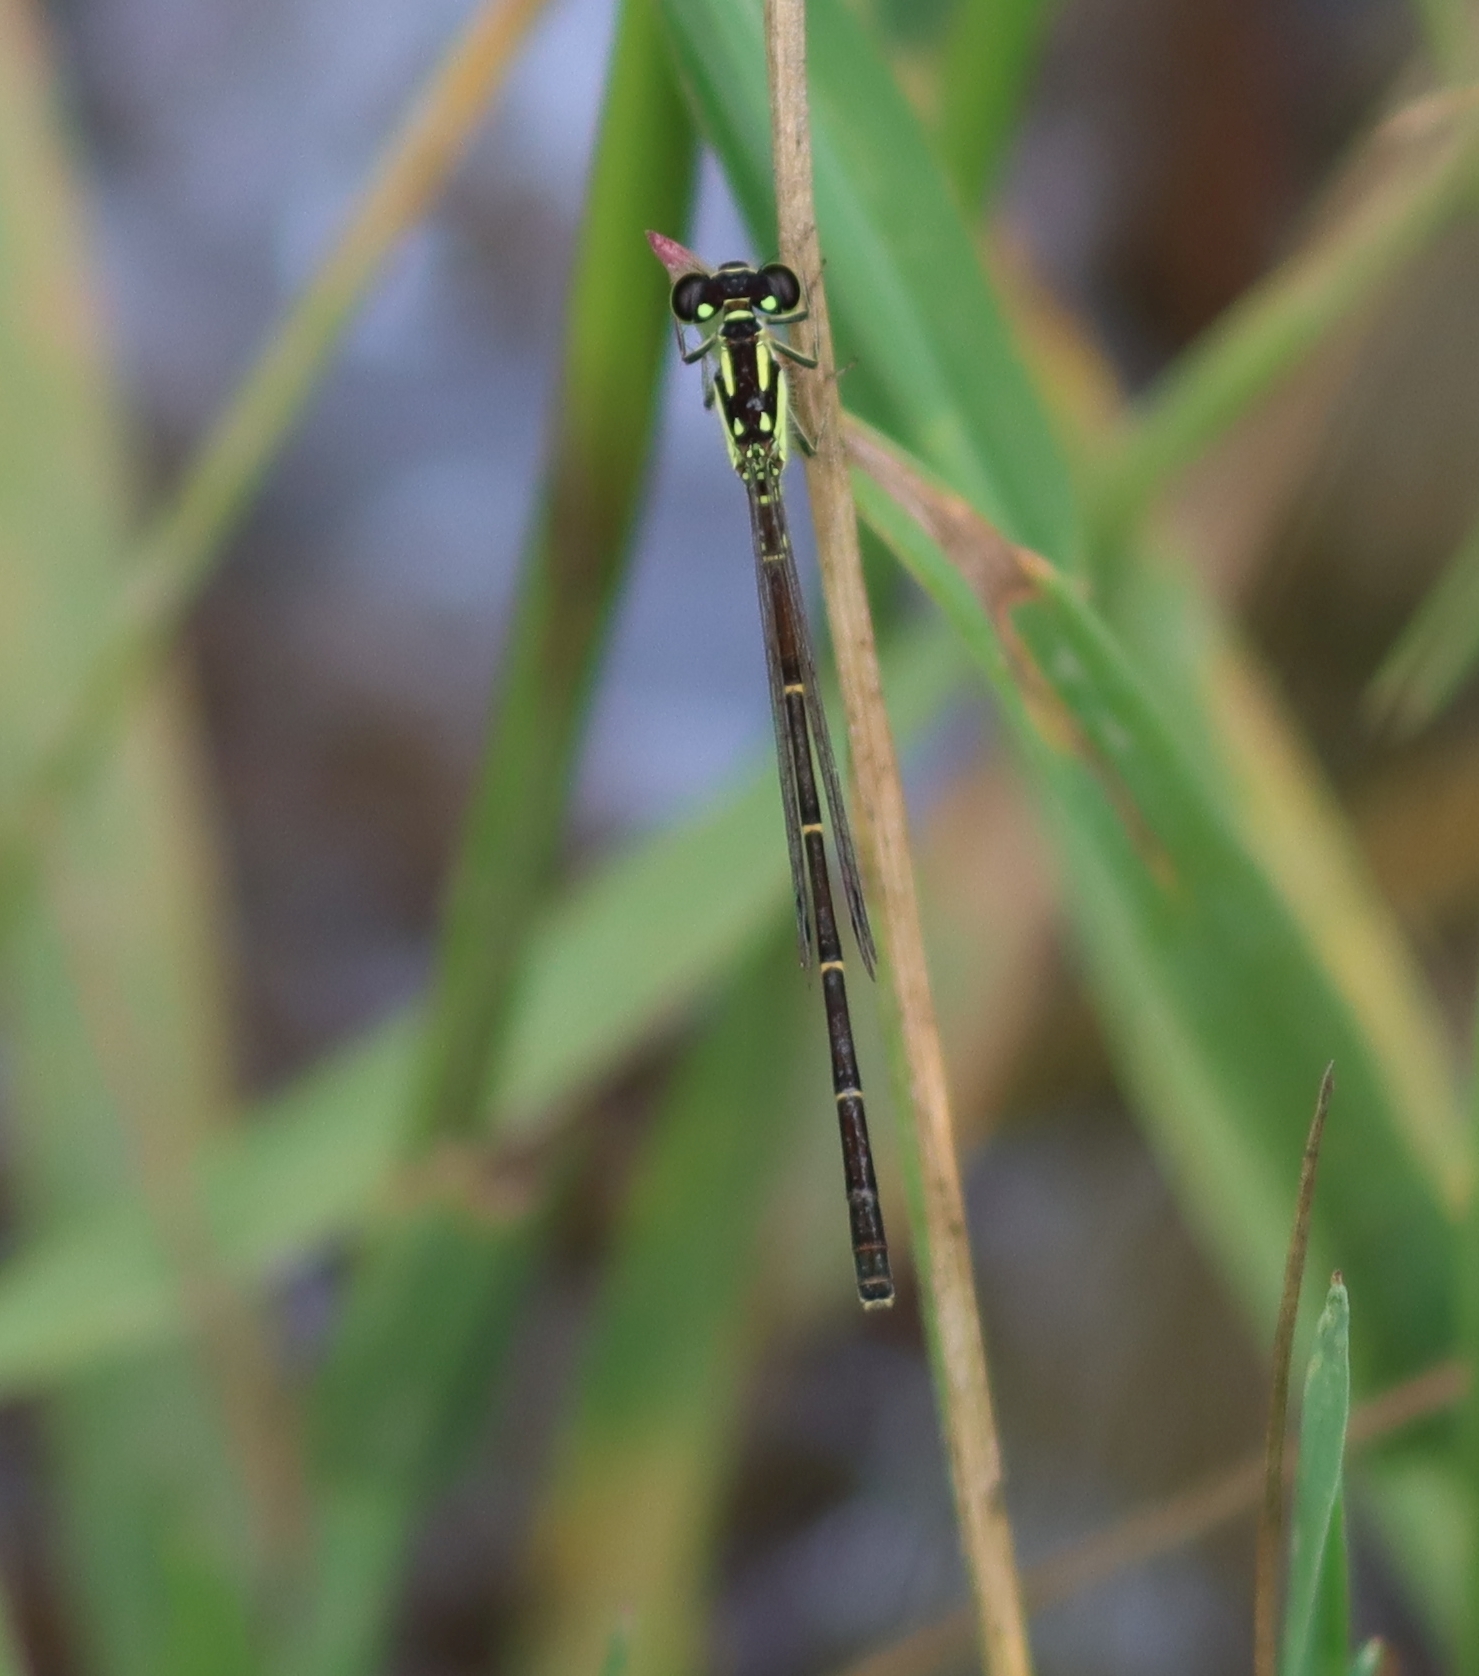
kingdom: Animalia
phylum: Arthropoda
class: Insecta
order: Odonata
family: Coenagrionidae
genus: Ischnura
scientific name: Ischnura posita
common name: Fragile forktail
